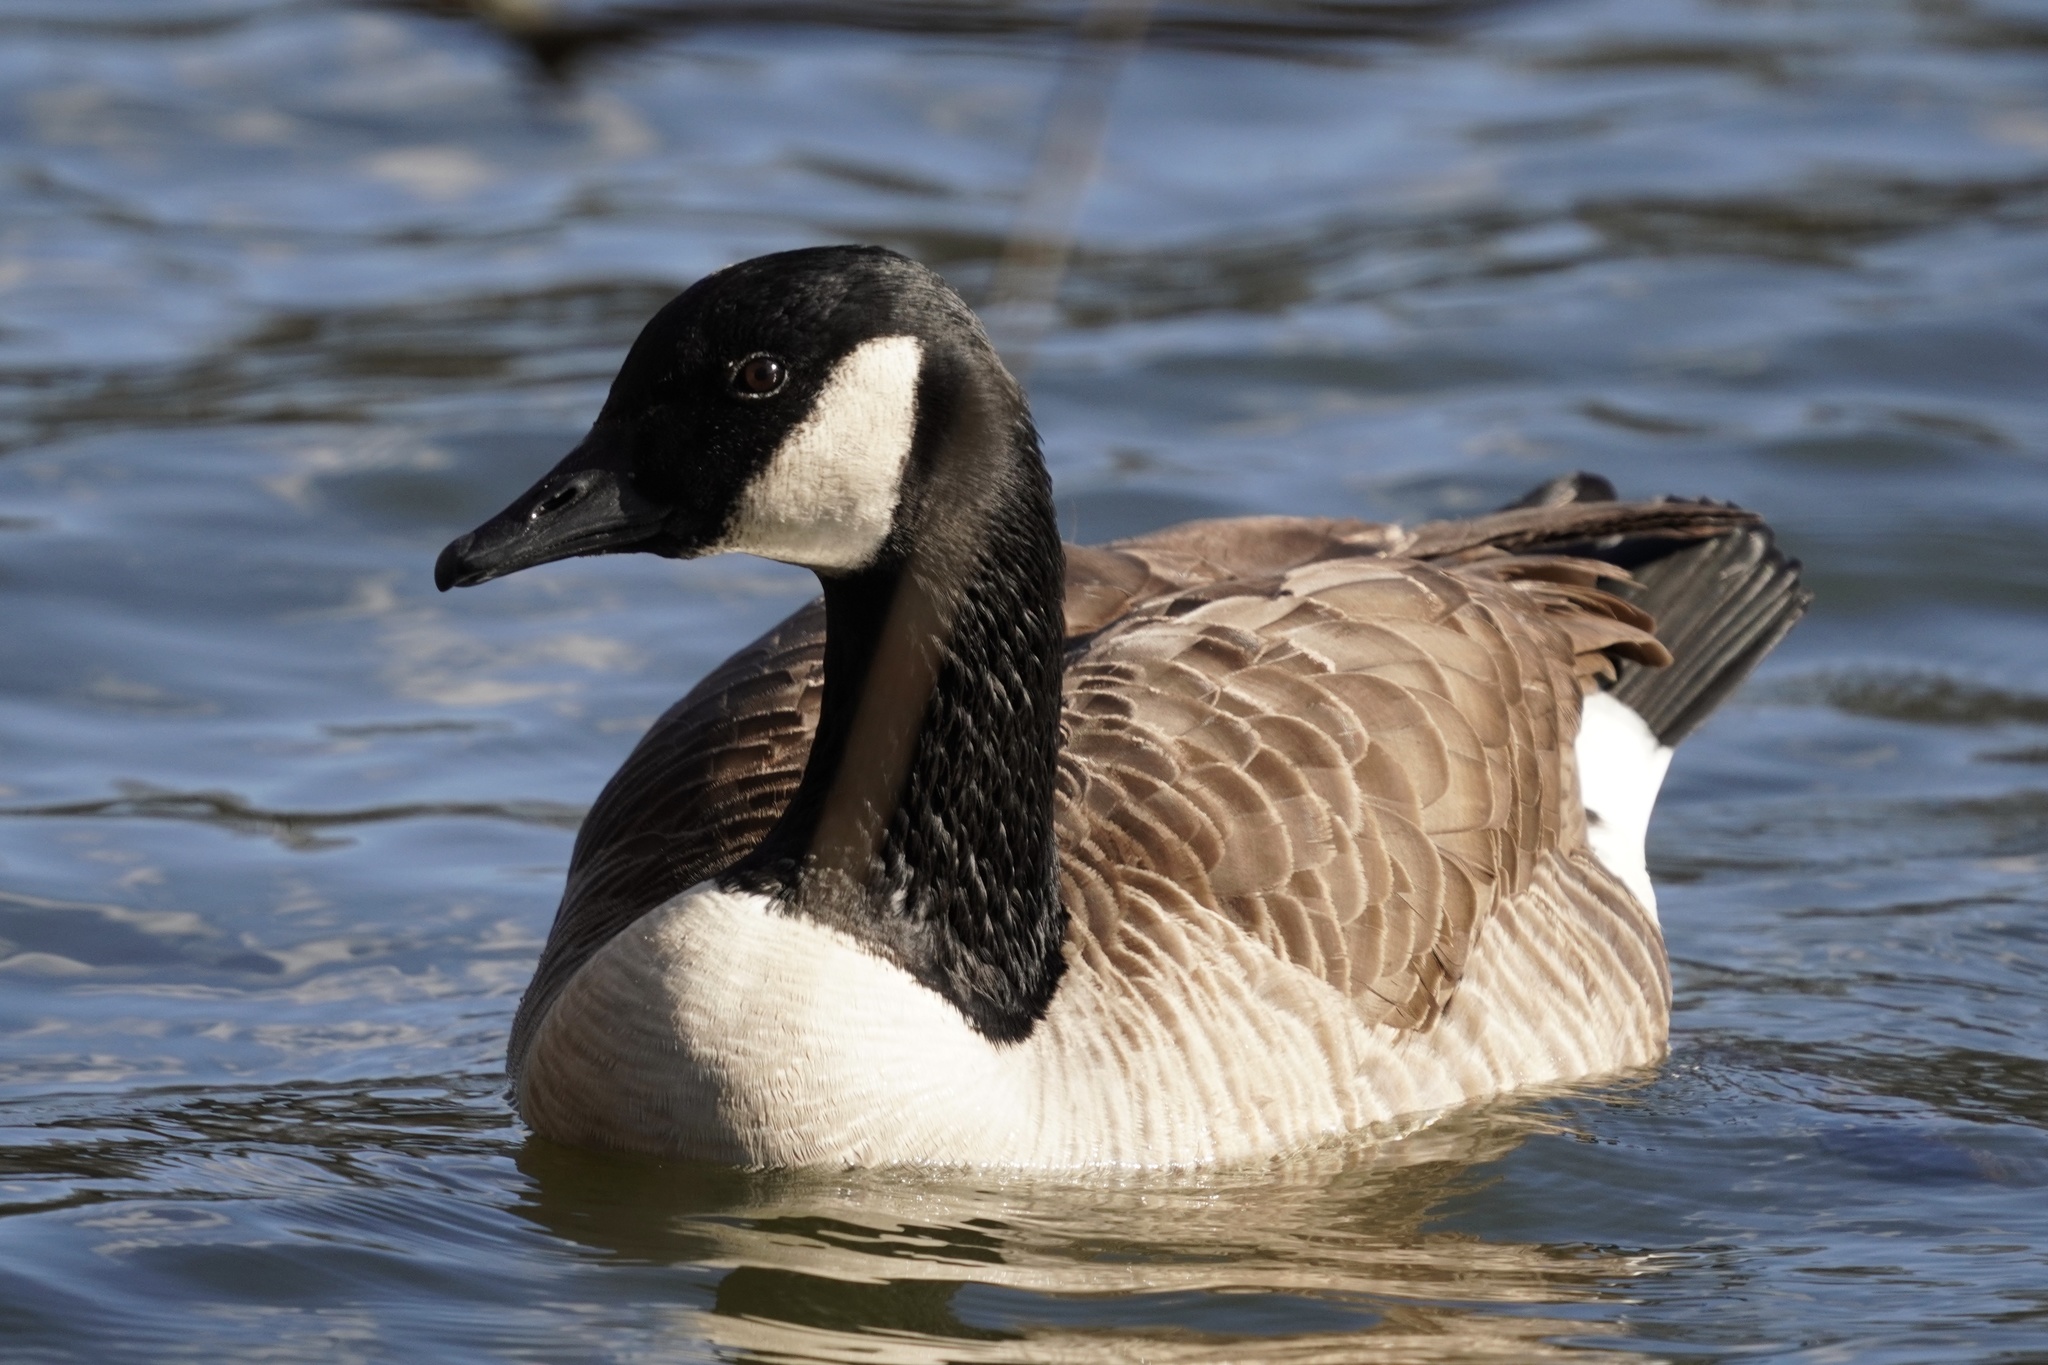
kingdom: Animalia
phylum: Chordata
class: Aves
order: Anseriformes
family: Anatidae
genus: Branta
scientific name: Branta canadensis
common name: Canada goose
